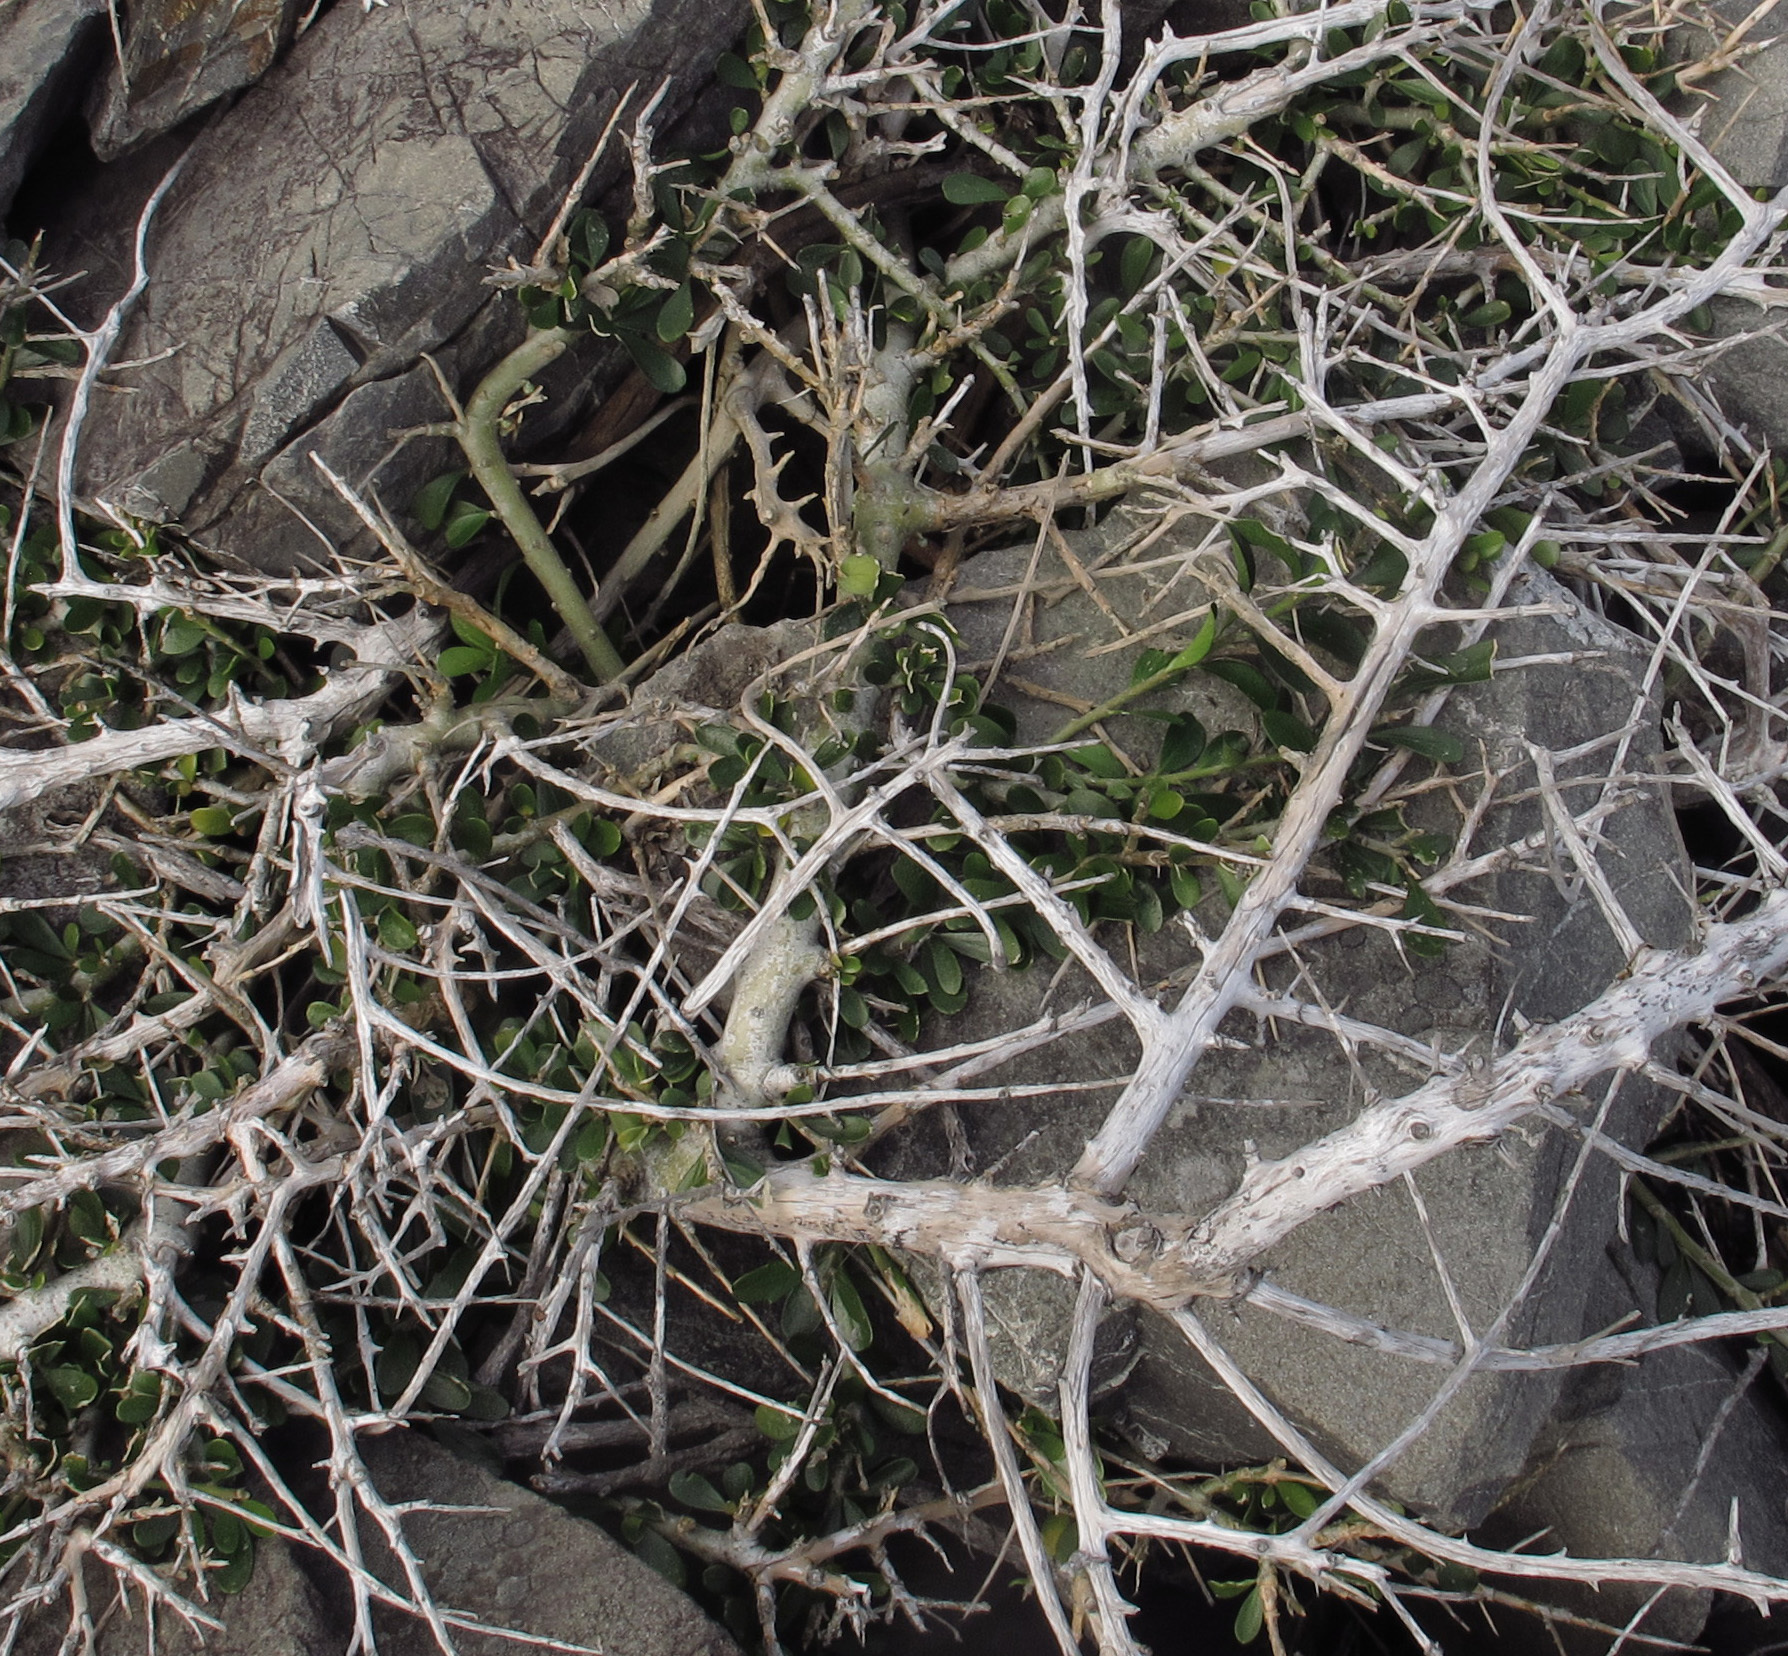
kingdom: Plantae
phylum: Tracheophyta
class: Magnoliopsida
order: Malpighiales
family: Violaceae
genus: Melicytus
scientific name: Melicytus crassifolius
